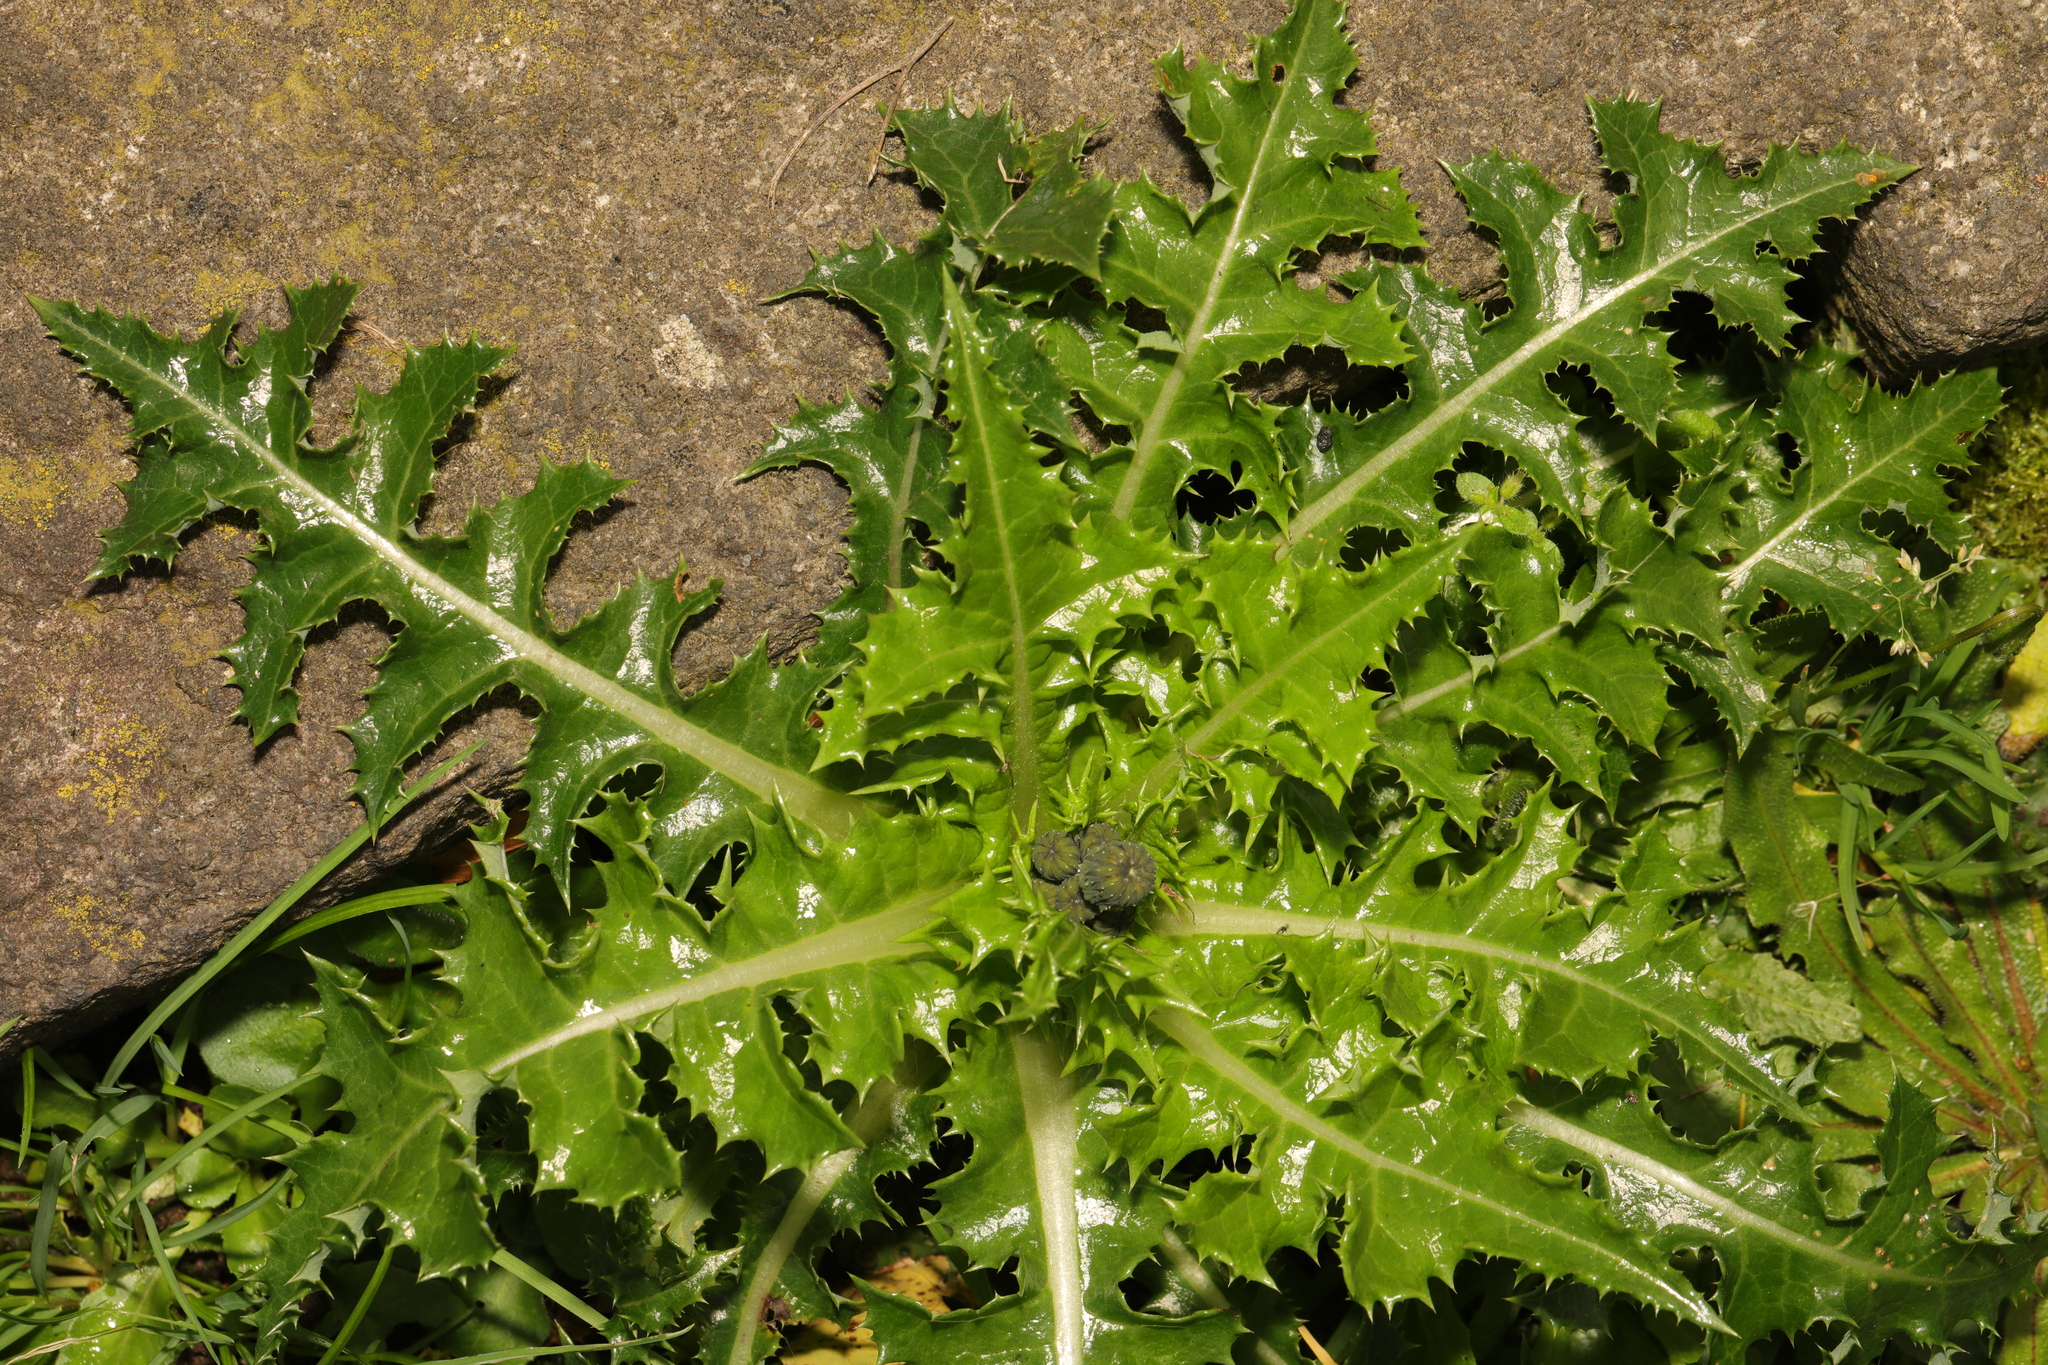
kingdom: Plantae
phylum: Tracheophyta
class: Magnoliopsida
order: Asterales
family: Asteraceae
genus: Sonchus
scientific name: Sonchus asper
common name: Prickly sow-thistle
